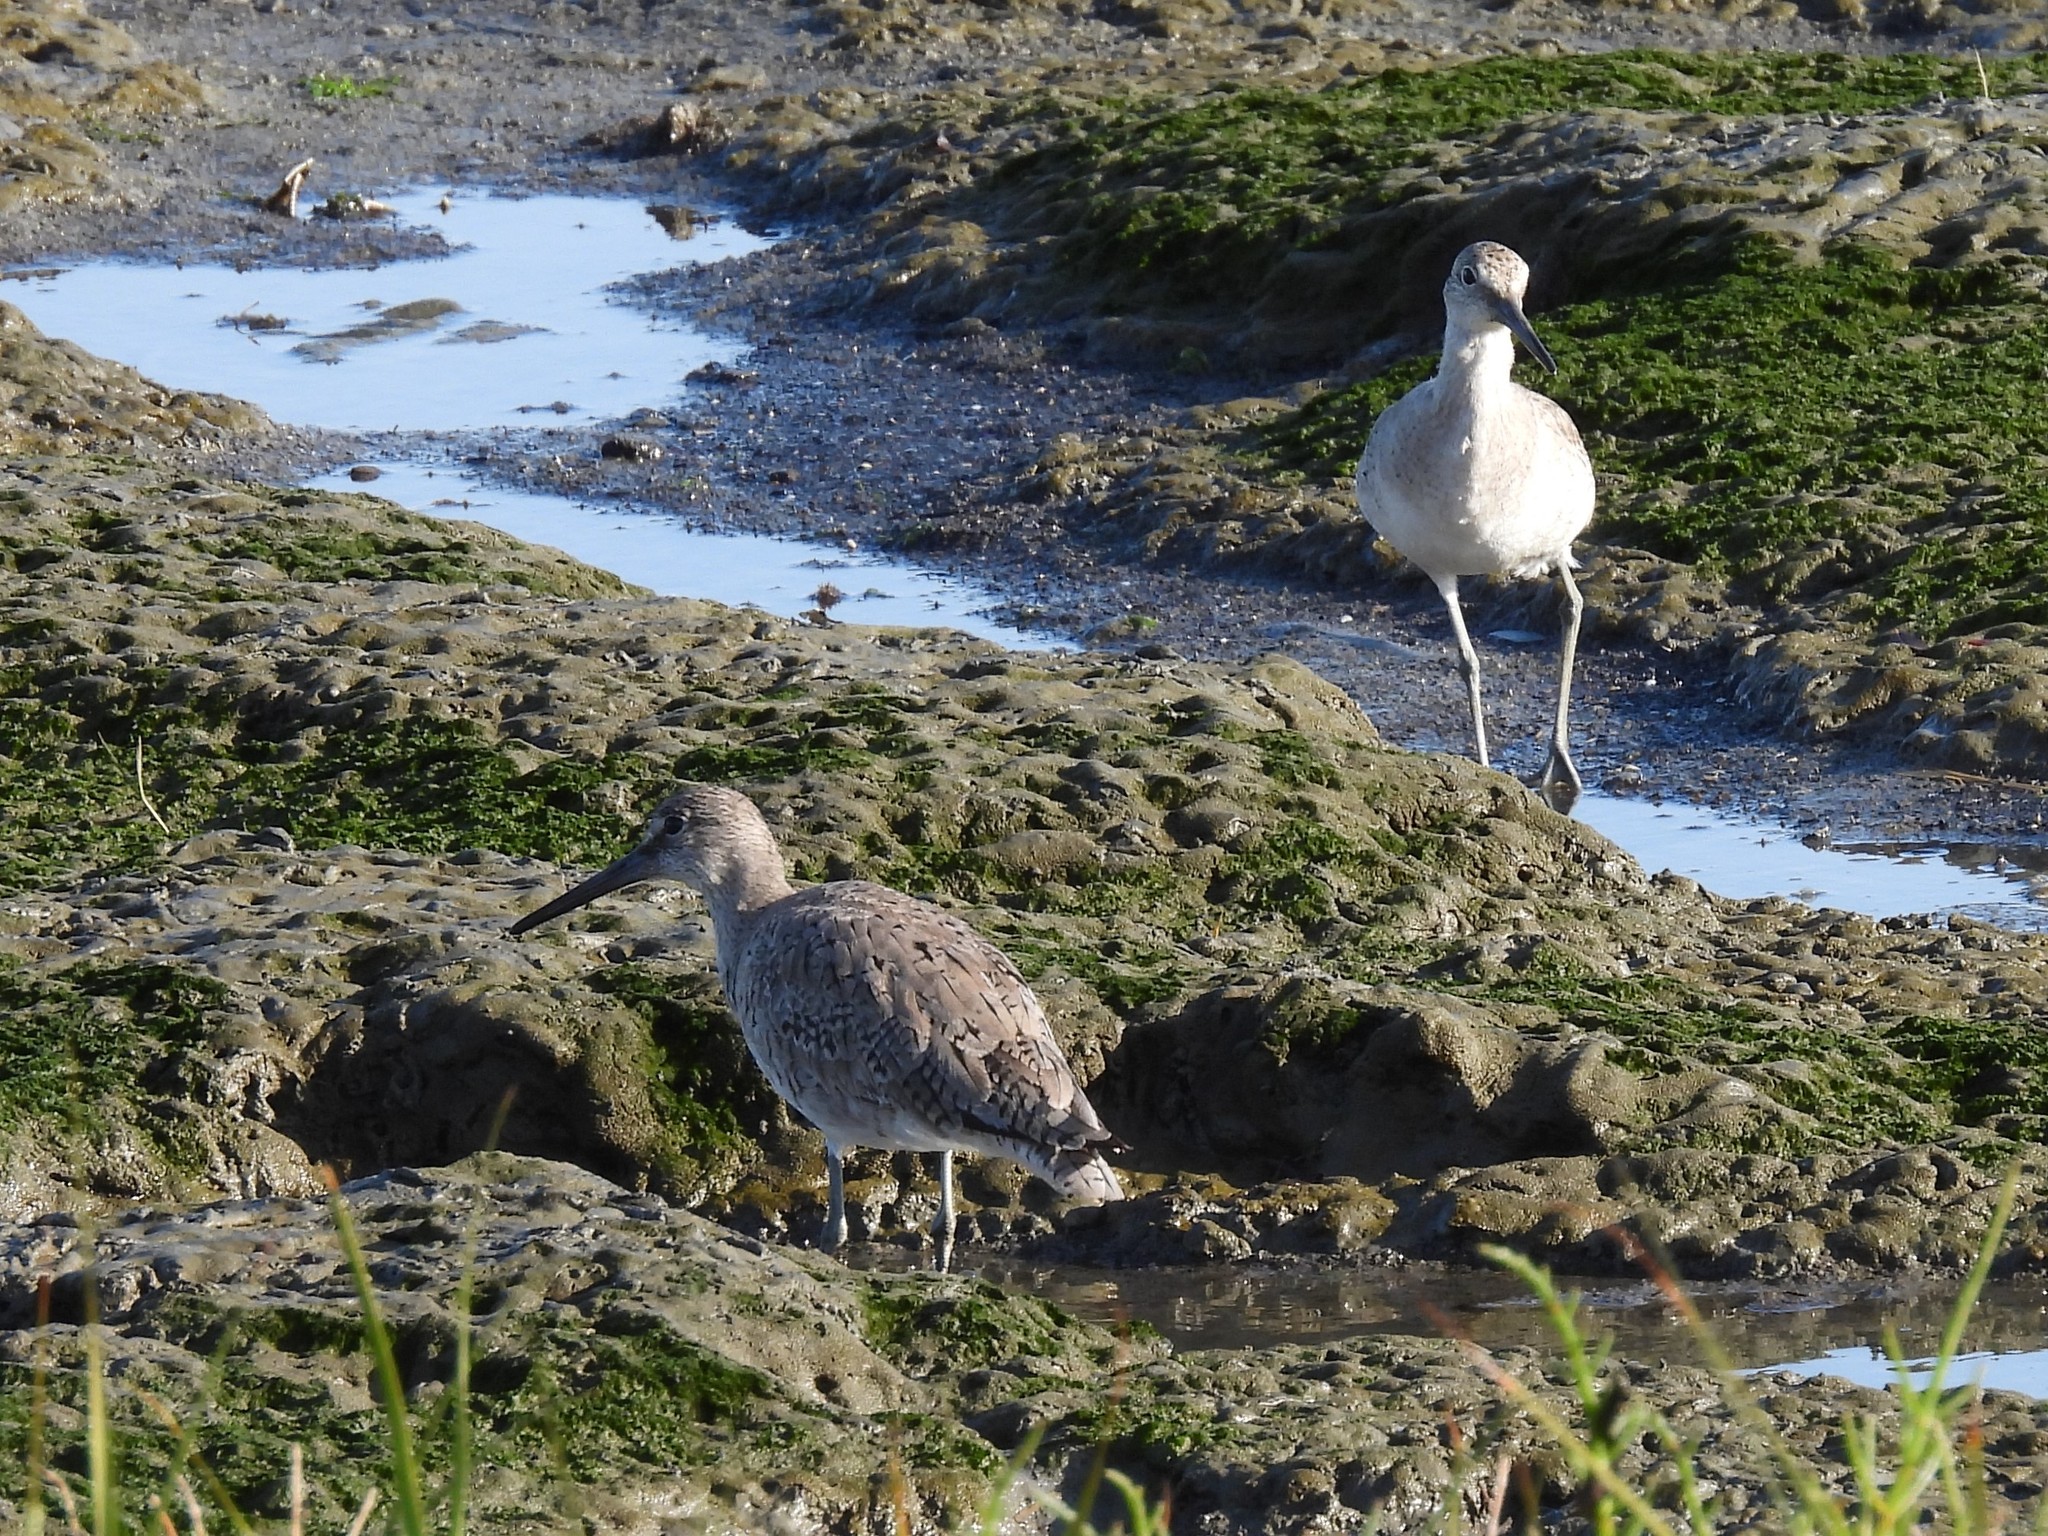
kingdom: Animalia
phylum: Chordata
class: Aves
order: Charadriiformes
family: Scolopacidae
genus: Tringa
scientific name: Tringa semipalmata
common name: Willet
